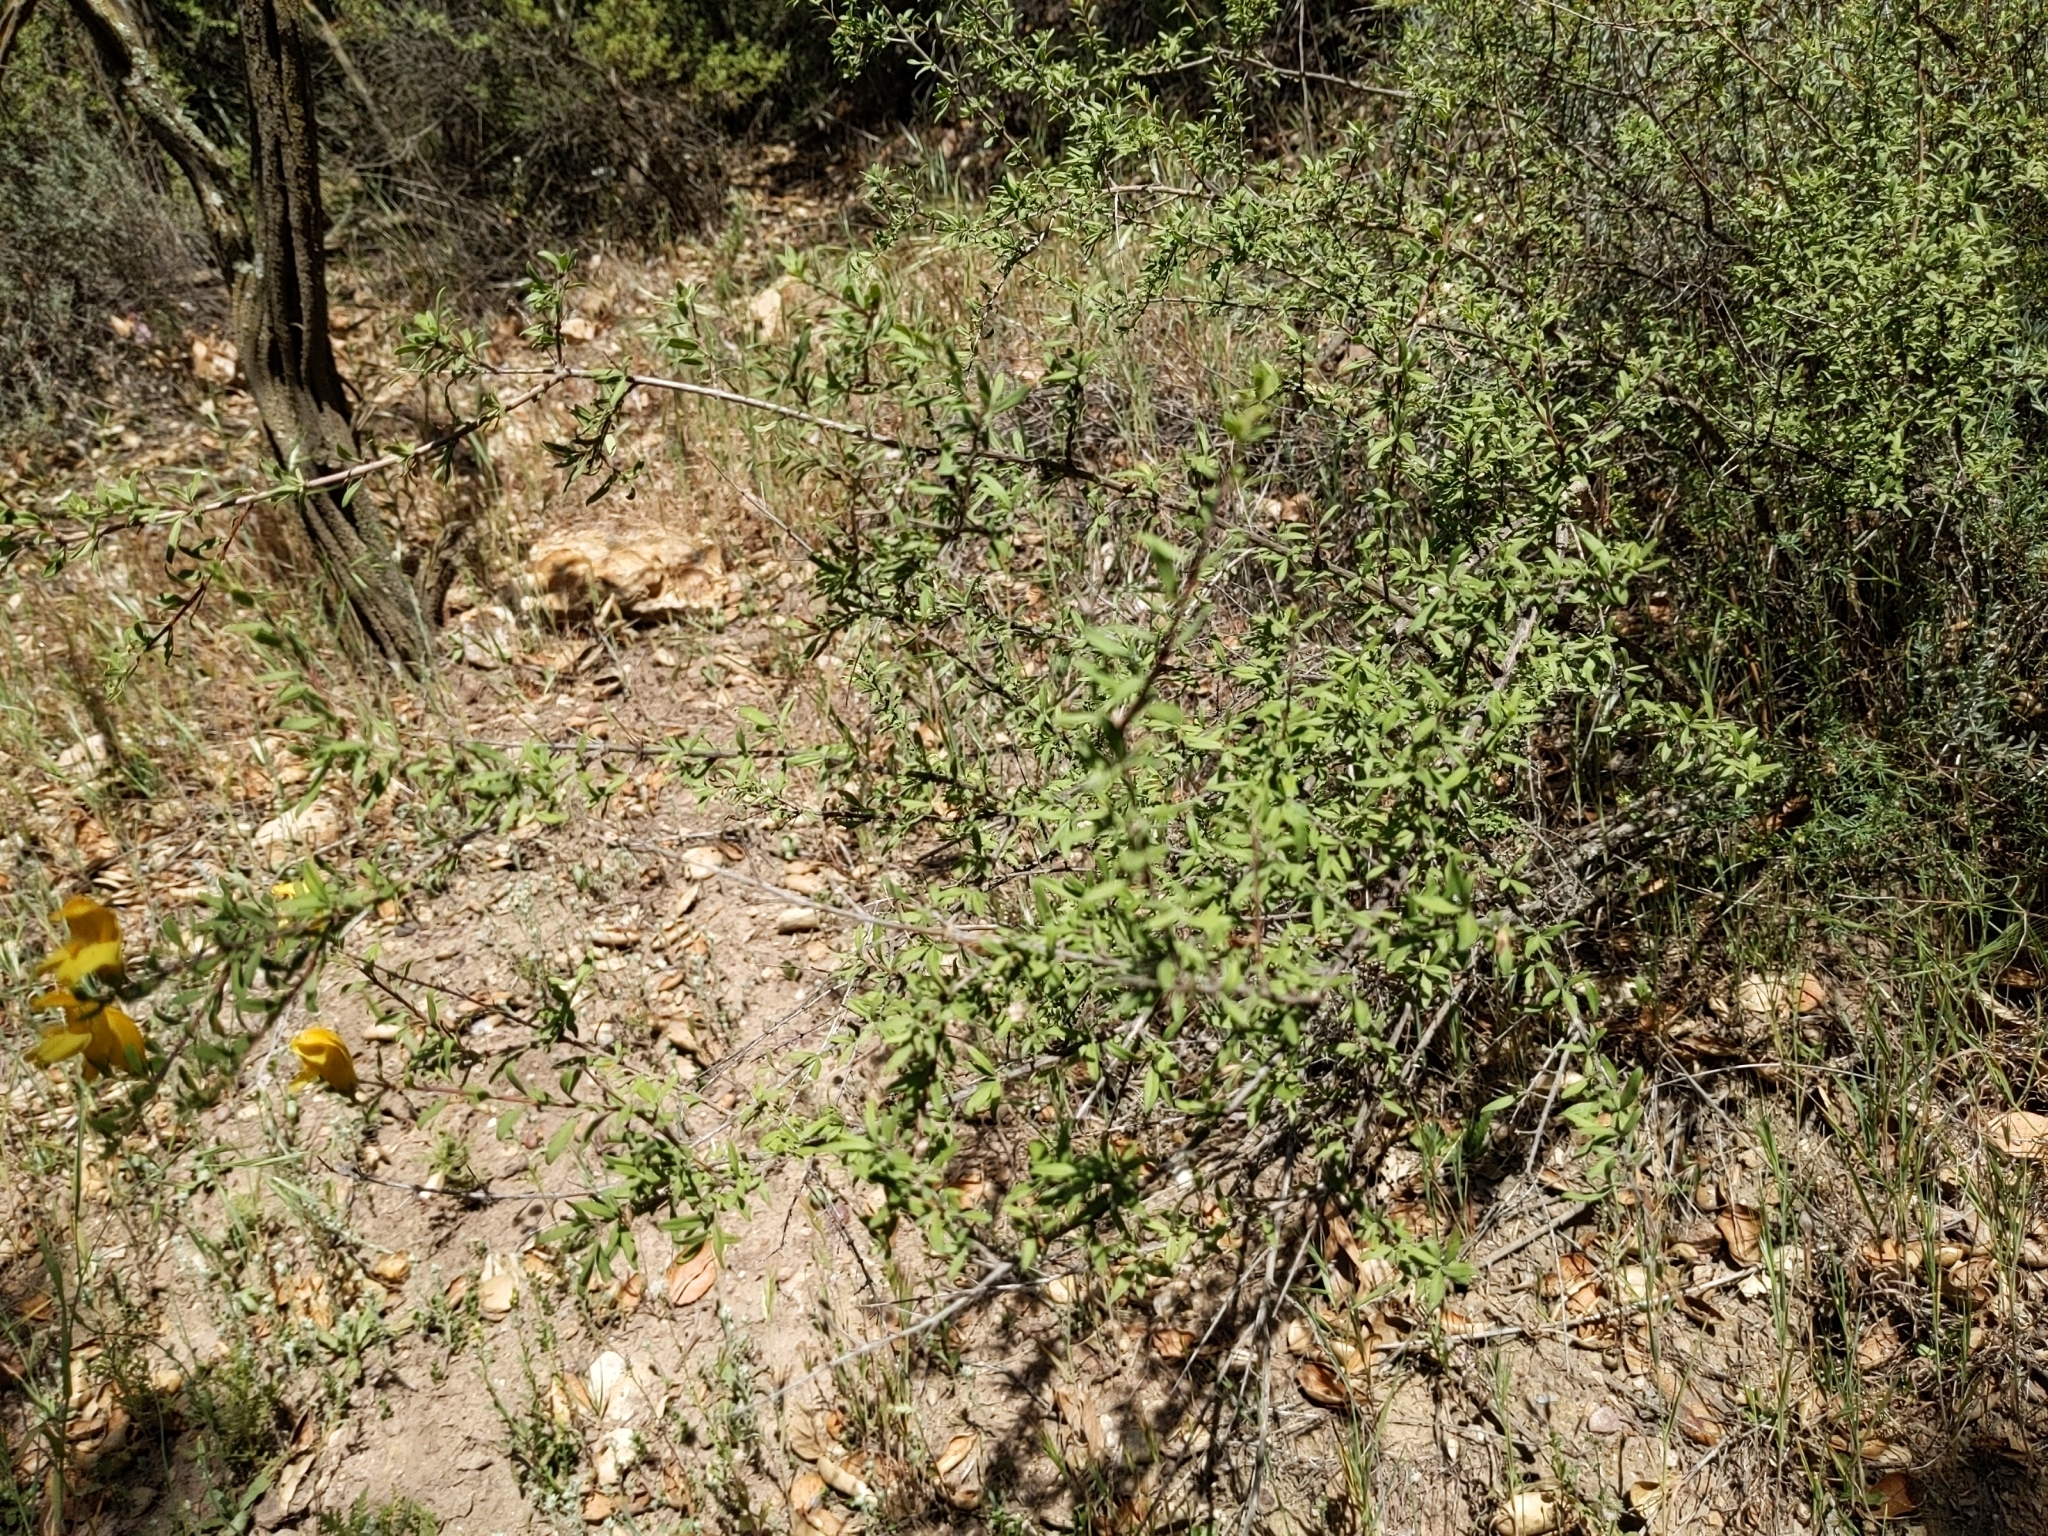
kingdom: Plantae
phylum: Tracheophyta
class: Magnoliopsida
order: Lamiales
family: Plantaginaceae
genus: Keckiella
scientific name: Keckiella antirrhinoides
